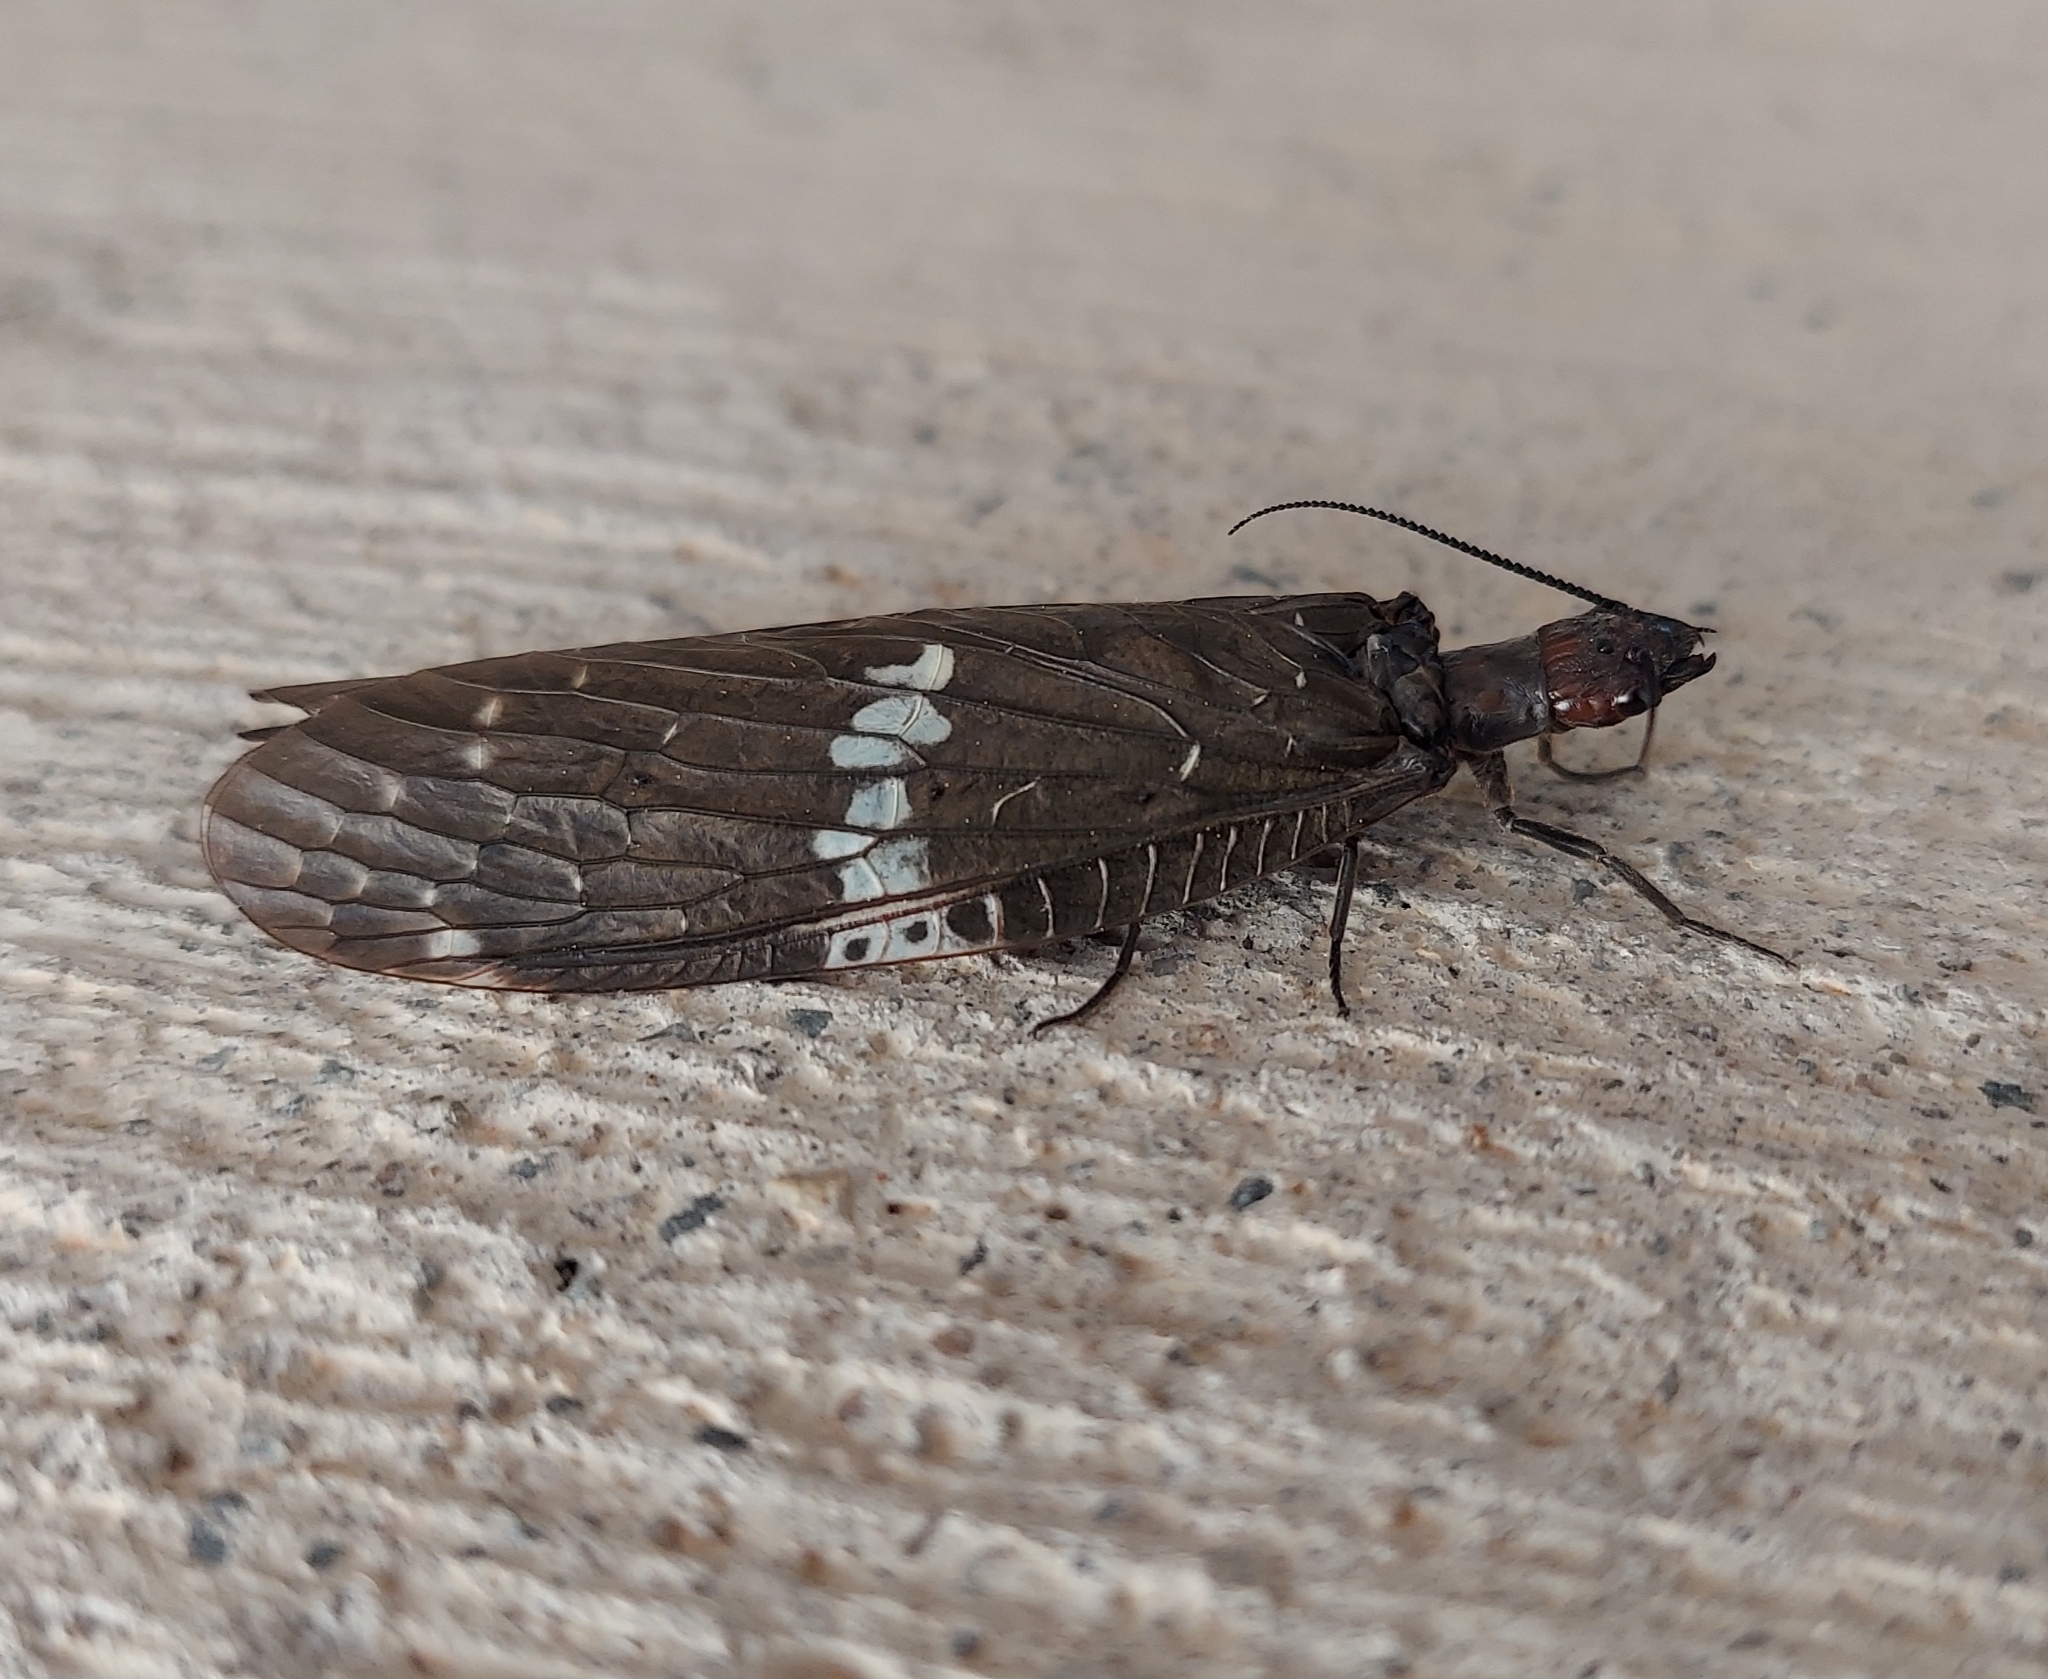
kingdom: Animalia
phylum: Arthropoda
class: Insecta
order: Megaloptera
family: Corydalidae
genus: Nigronia
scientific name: Nigronia serricornis
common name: Serrate dark fishfly
